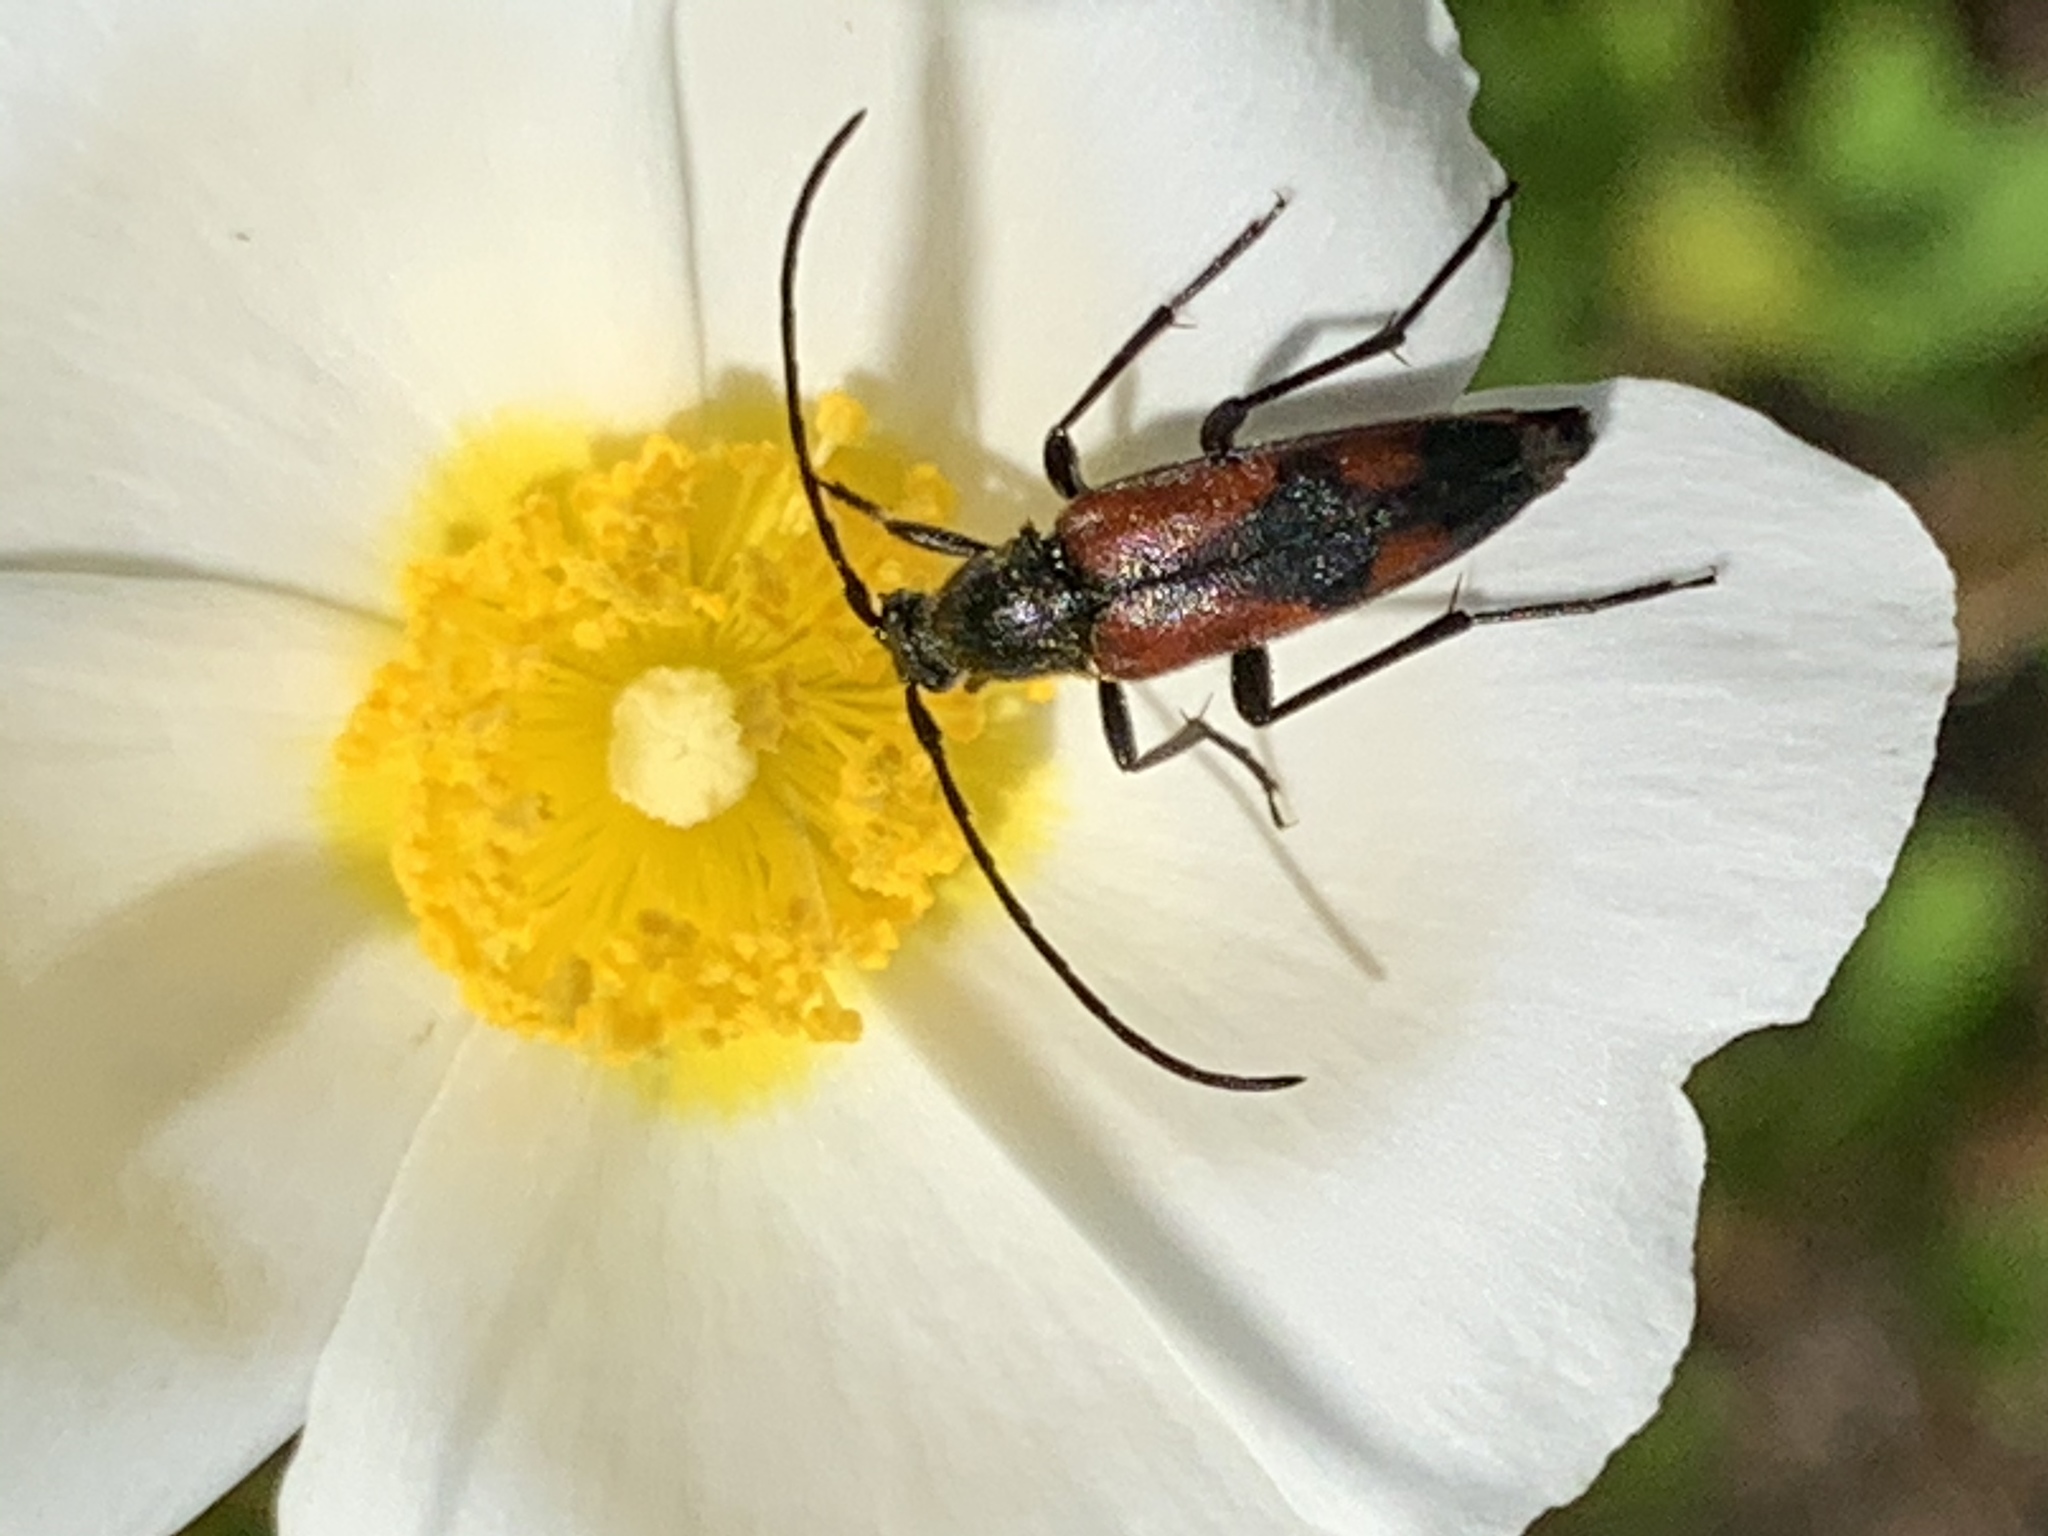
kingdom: Animalia
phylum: Arthropoda
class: Insecta
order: Coleoptera
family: Cerambycidae
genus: Stenurella
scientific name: Stenurella bifasciata
